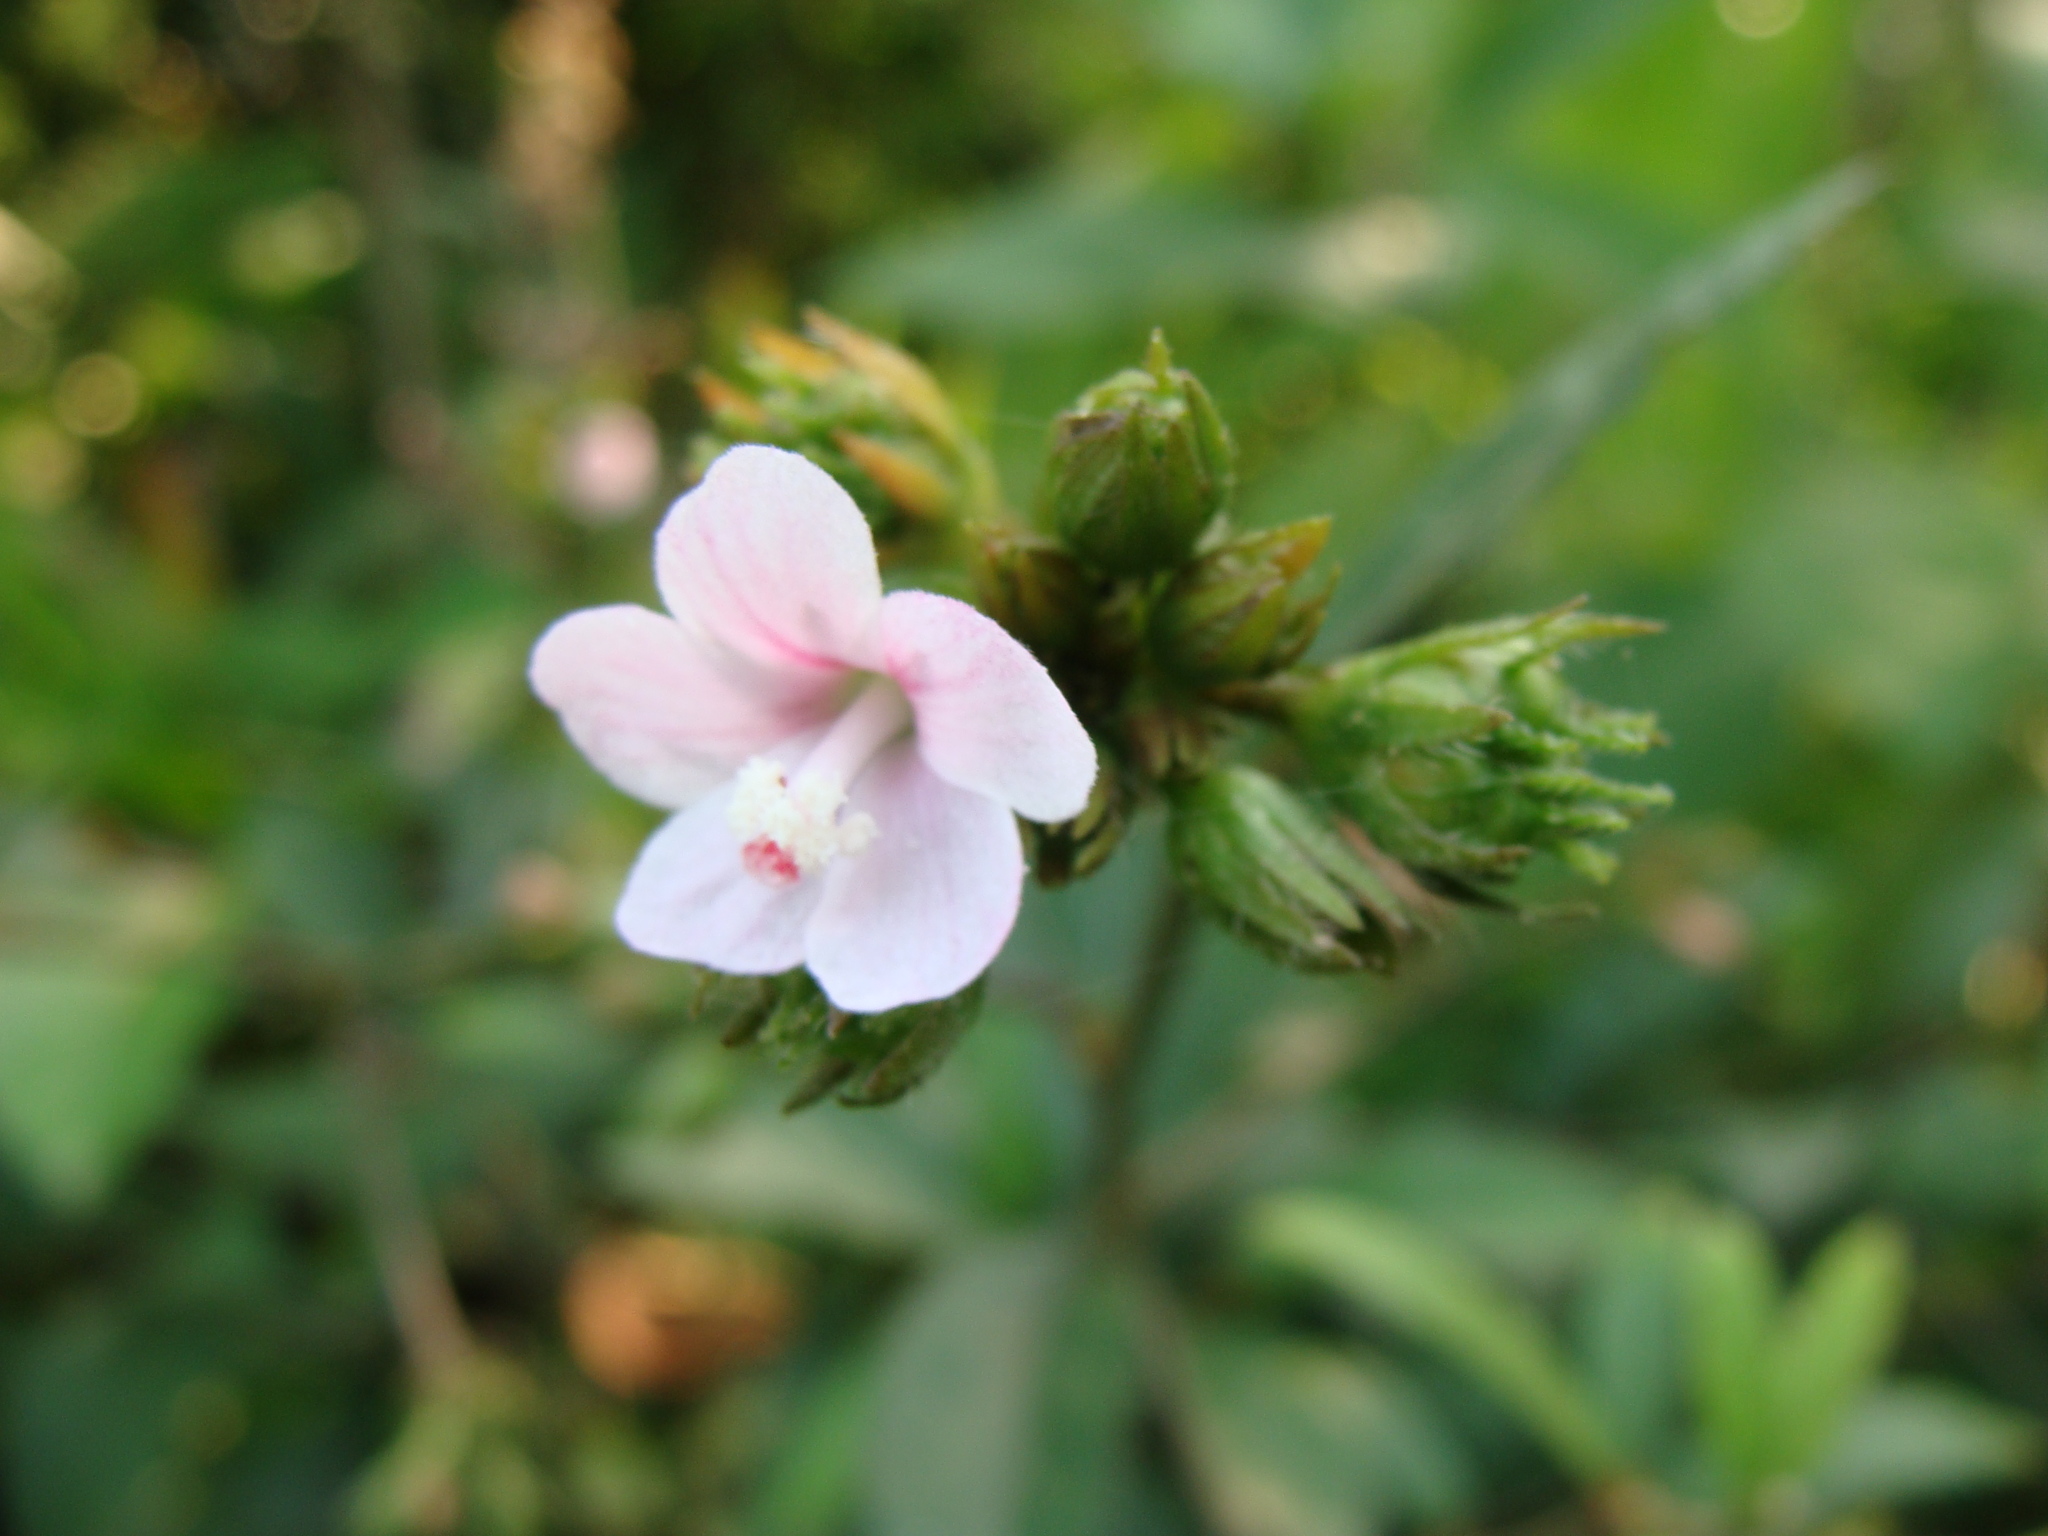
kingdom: Plantae
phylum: Tracheophyta
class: Magnoliopsida
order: Malvales
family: Malvaceae
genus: Pavonia
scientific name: Pavonia schiedeana
